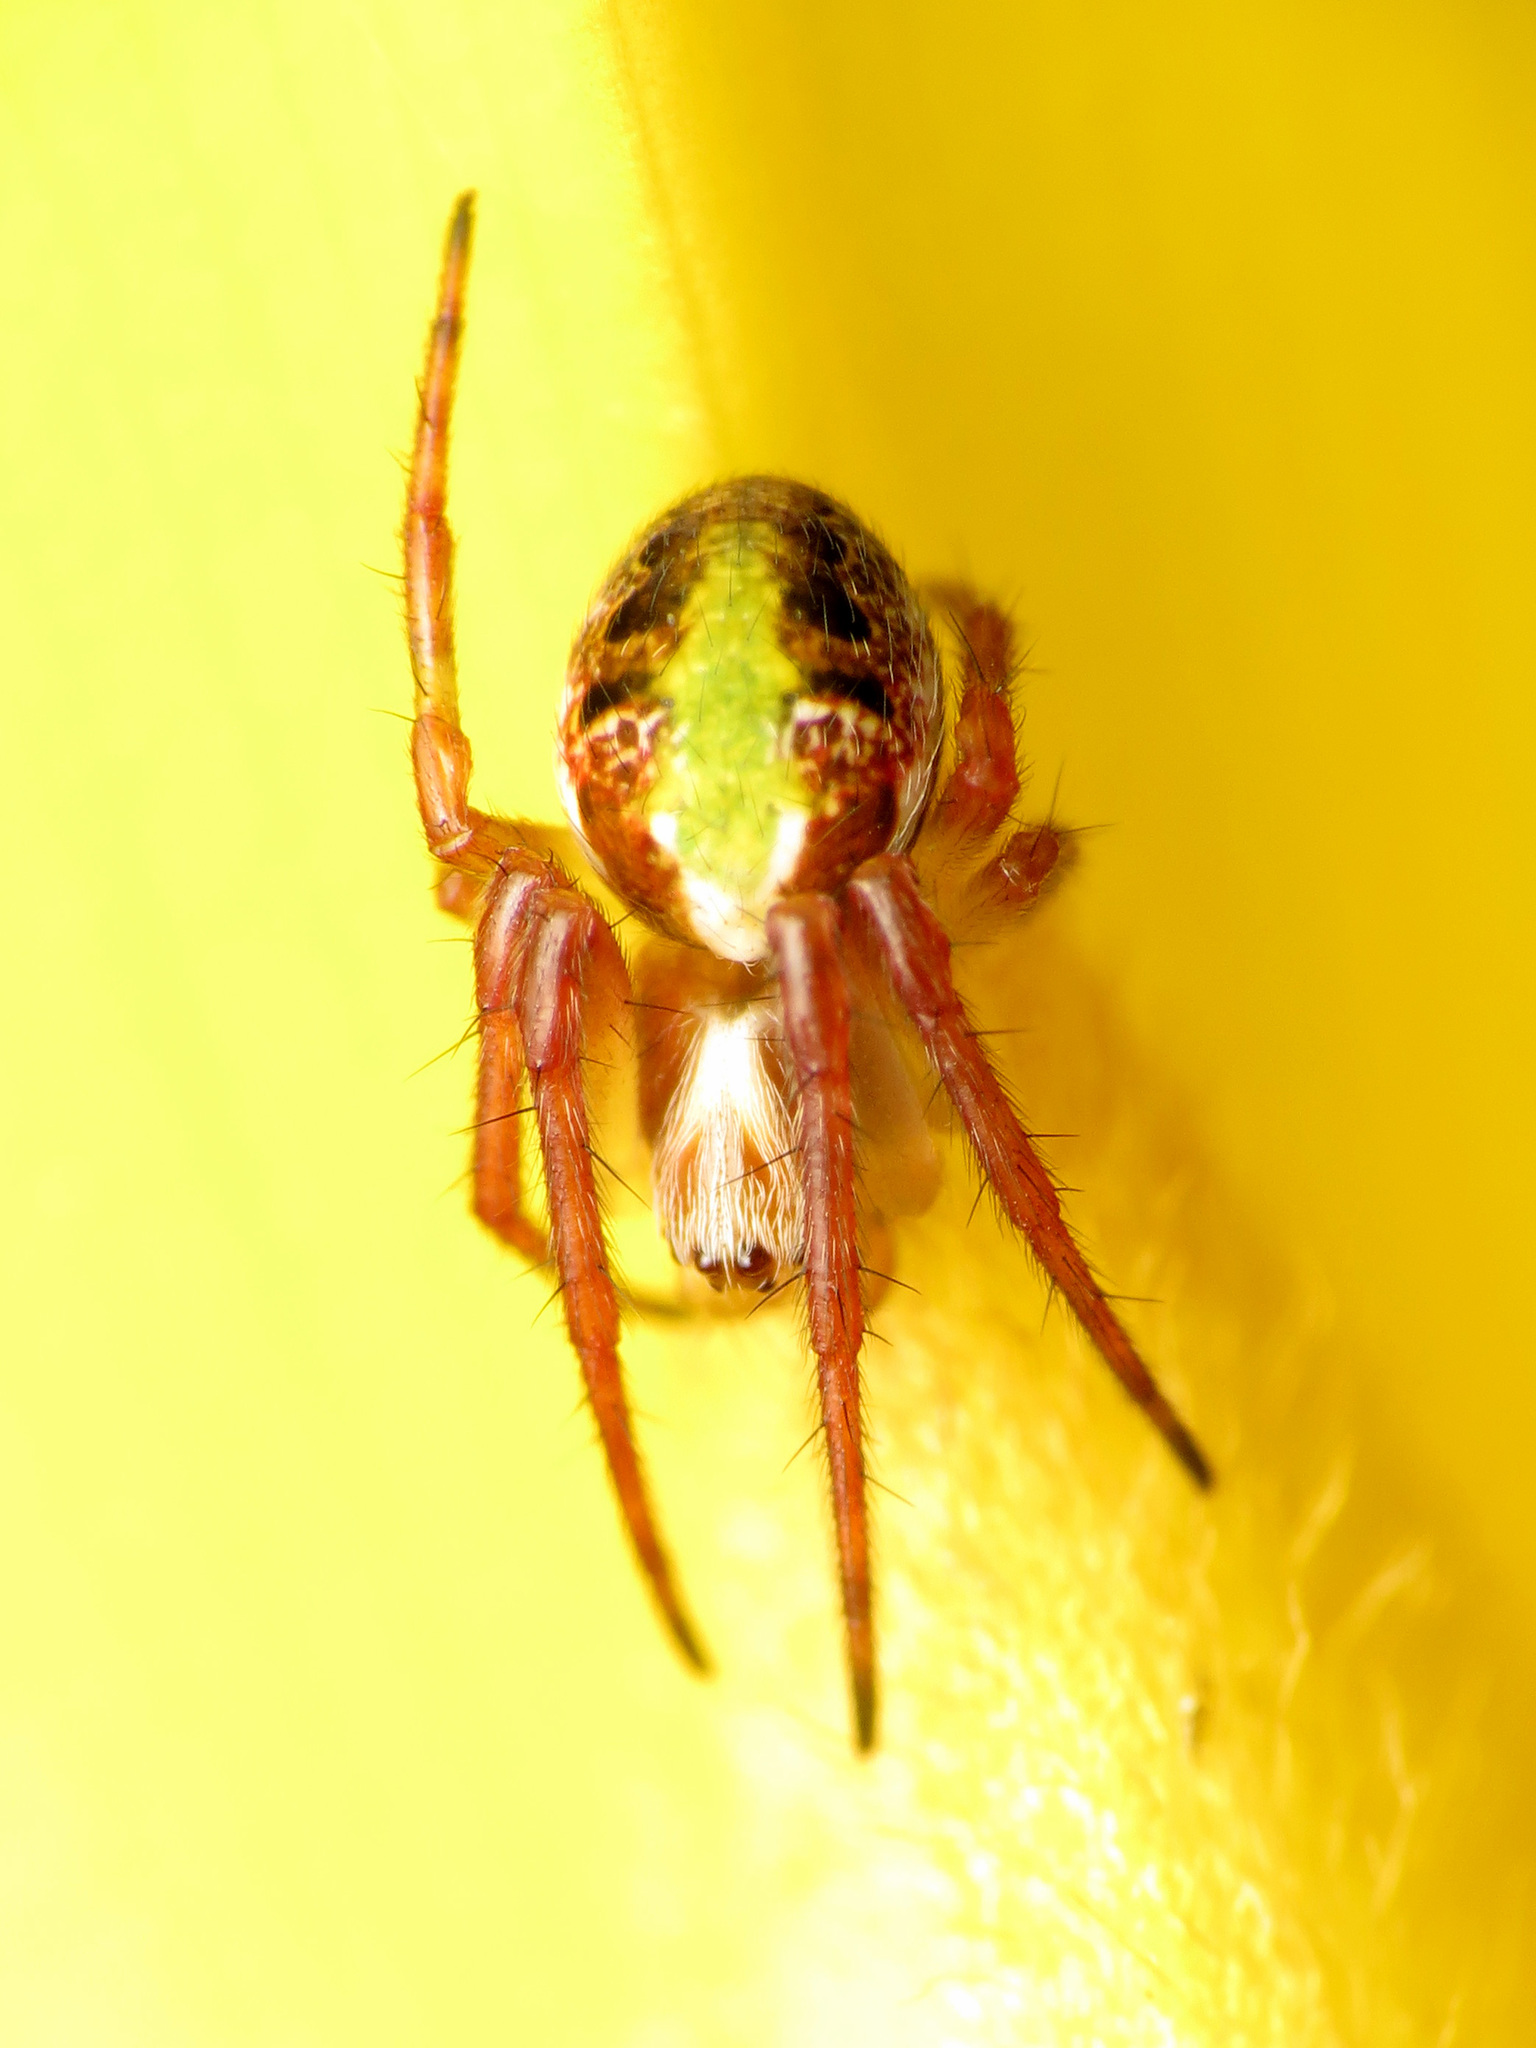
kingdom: Animalia
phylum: Arthropoda
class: Arachnida
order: Araneae
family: Araneidae
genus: Novaranea
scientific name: Novaranea queribunda
